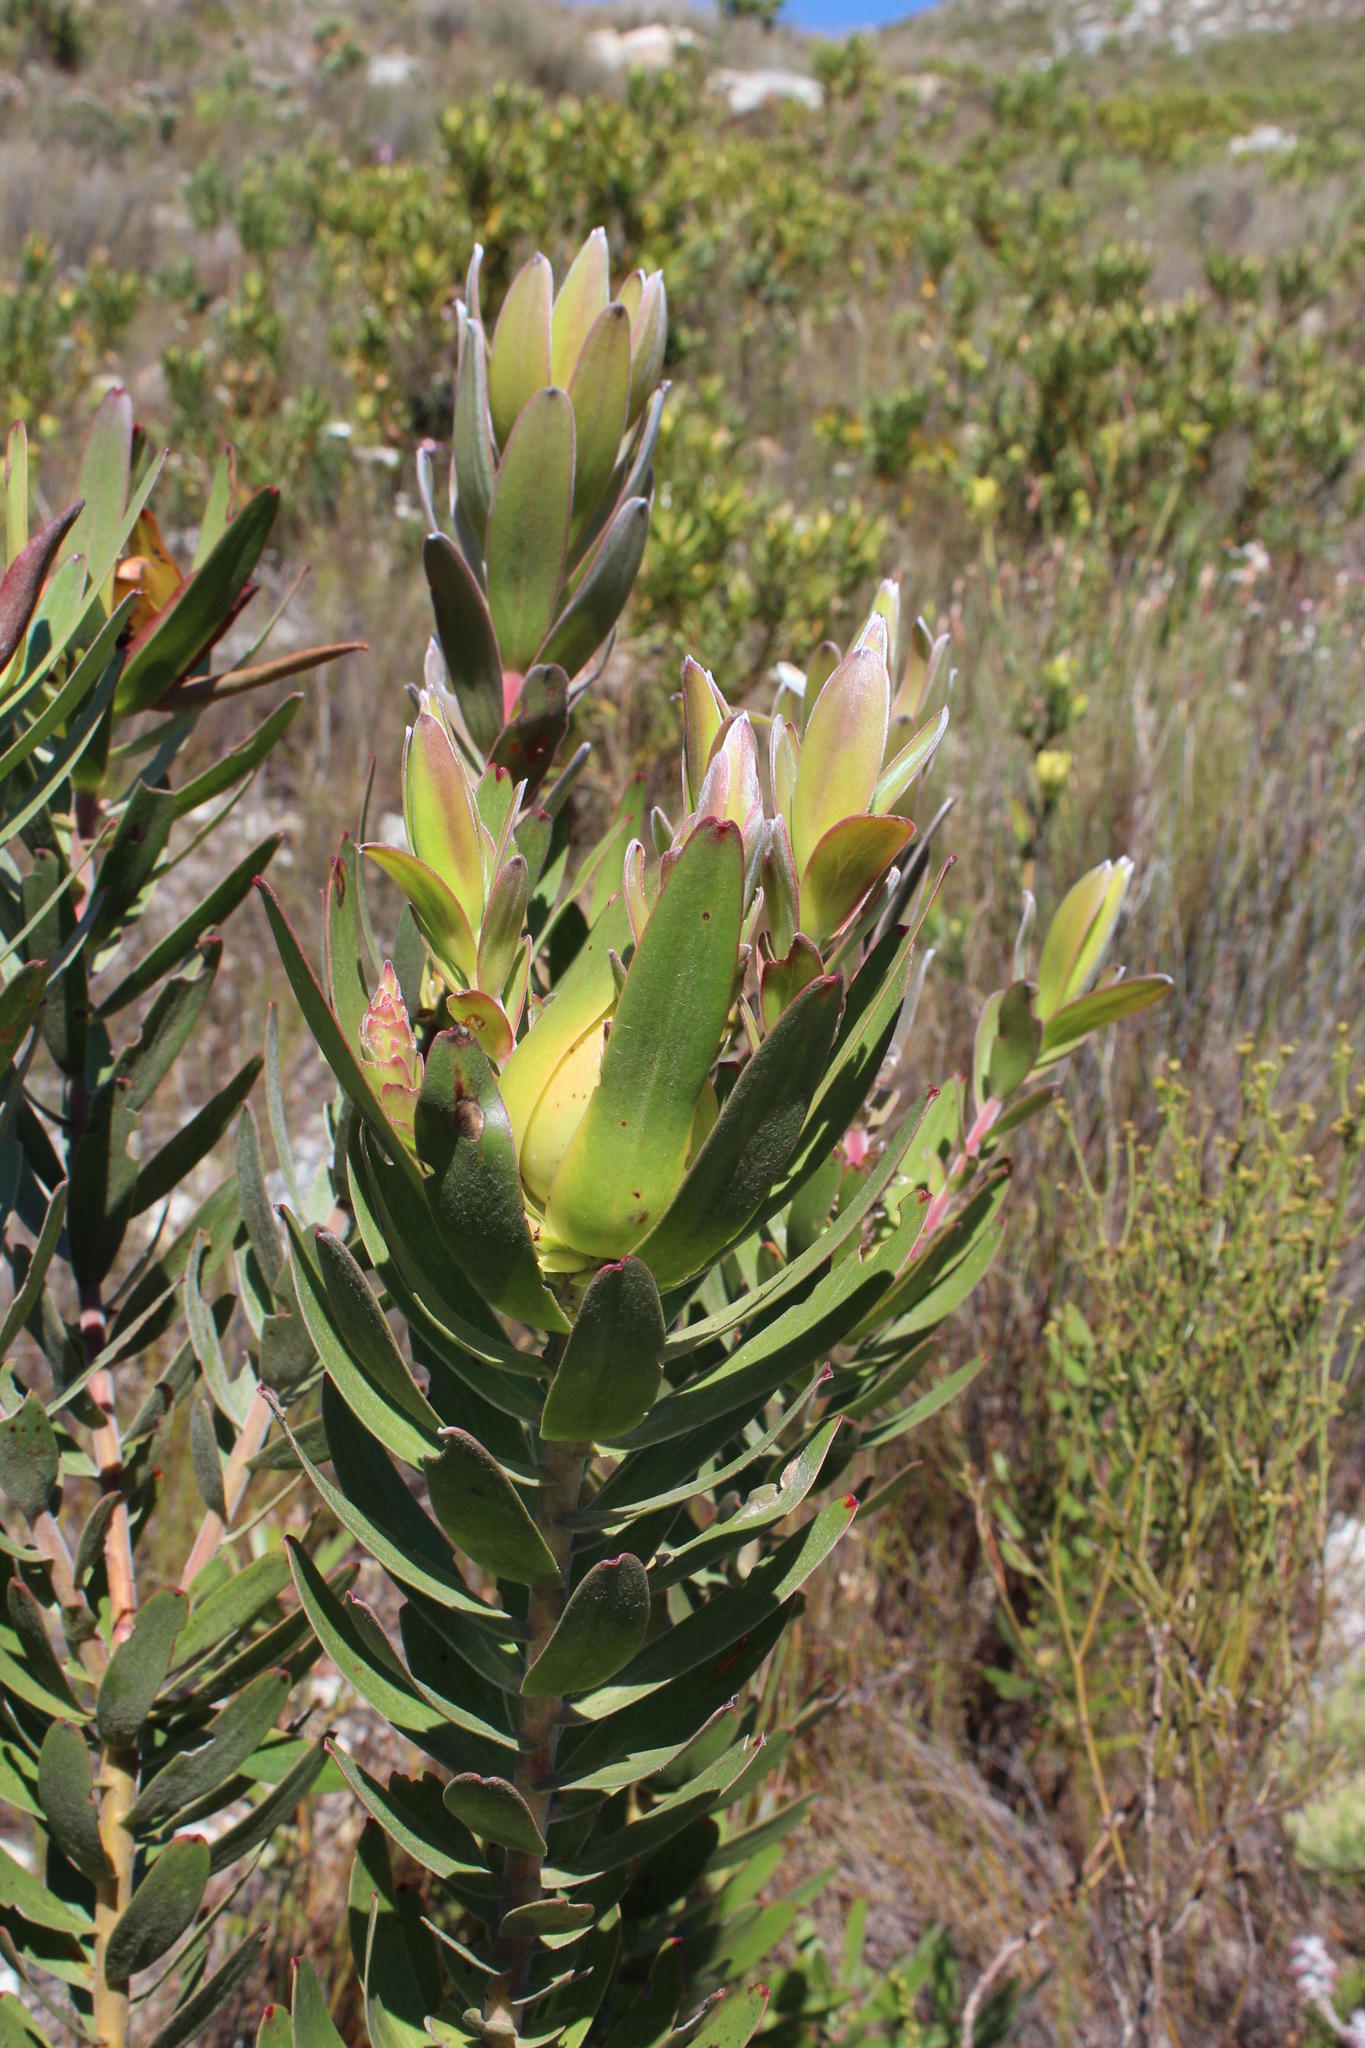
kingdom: Plantae
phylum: Tracheophyta
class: Magnoliopsida
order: Proteales
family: Proteaceae
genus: Leucadendron
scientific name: Leucadendron laureolum
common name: Golden sunshinebush
